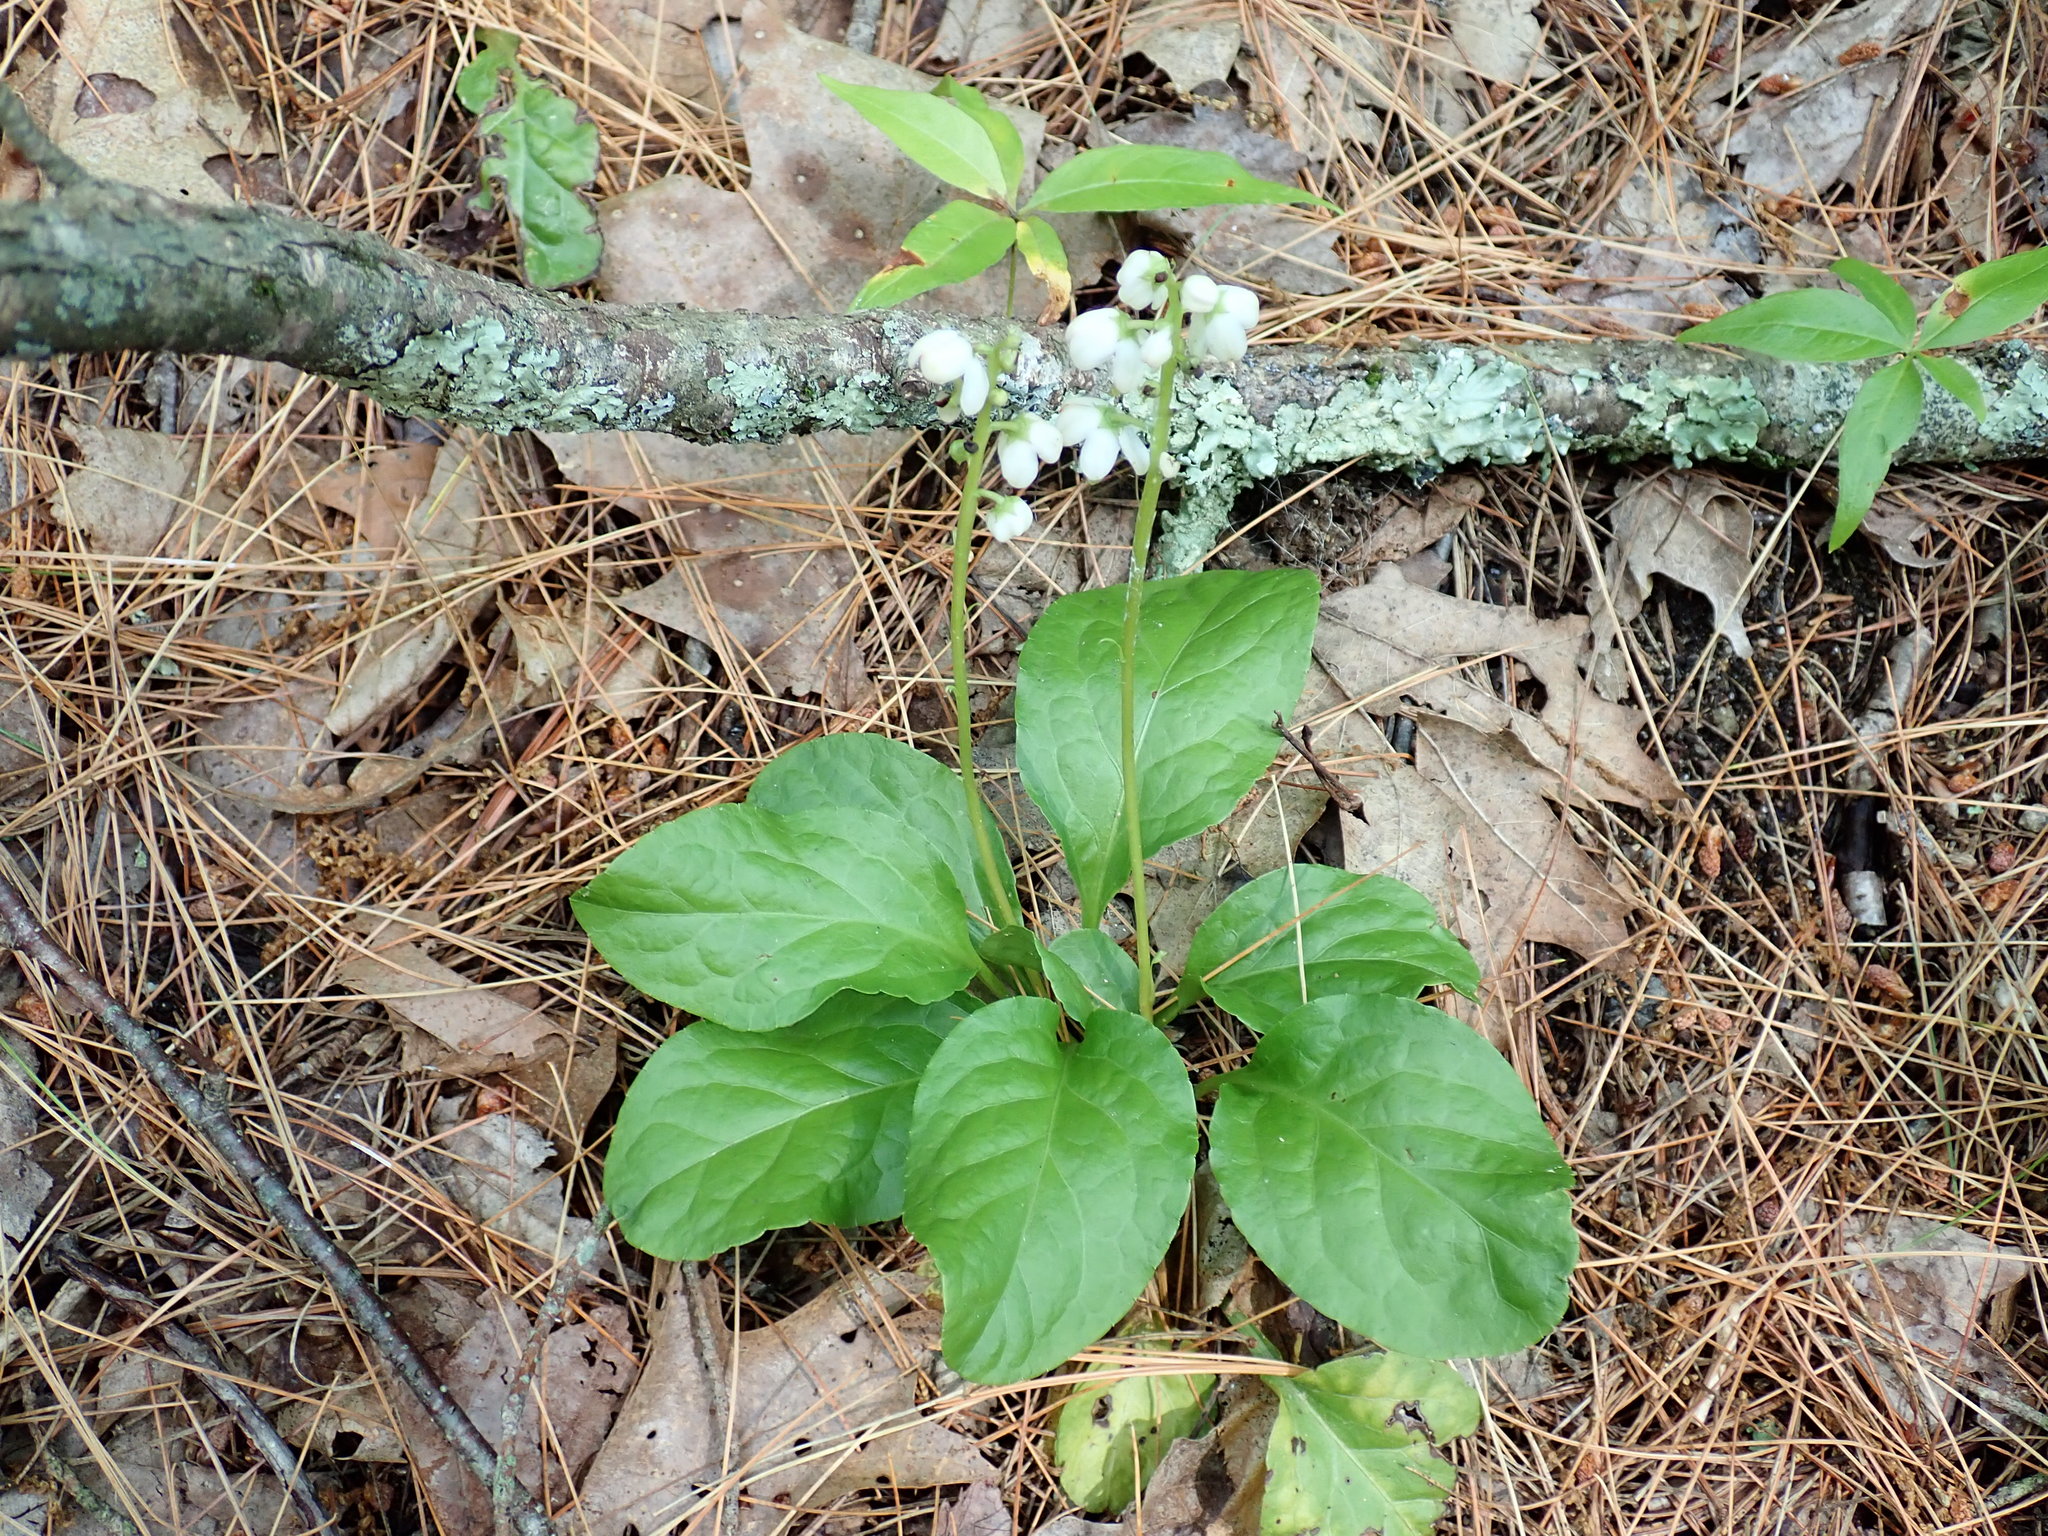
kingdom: Plantae
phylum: Tracheophyta
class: Magnoliopsida
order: Ericales
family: Ericaceae
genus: Pyrola
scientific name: Pyrola elliptica
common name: Shinleaf
